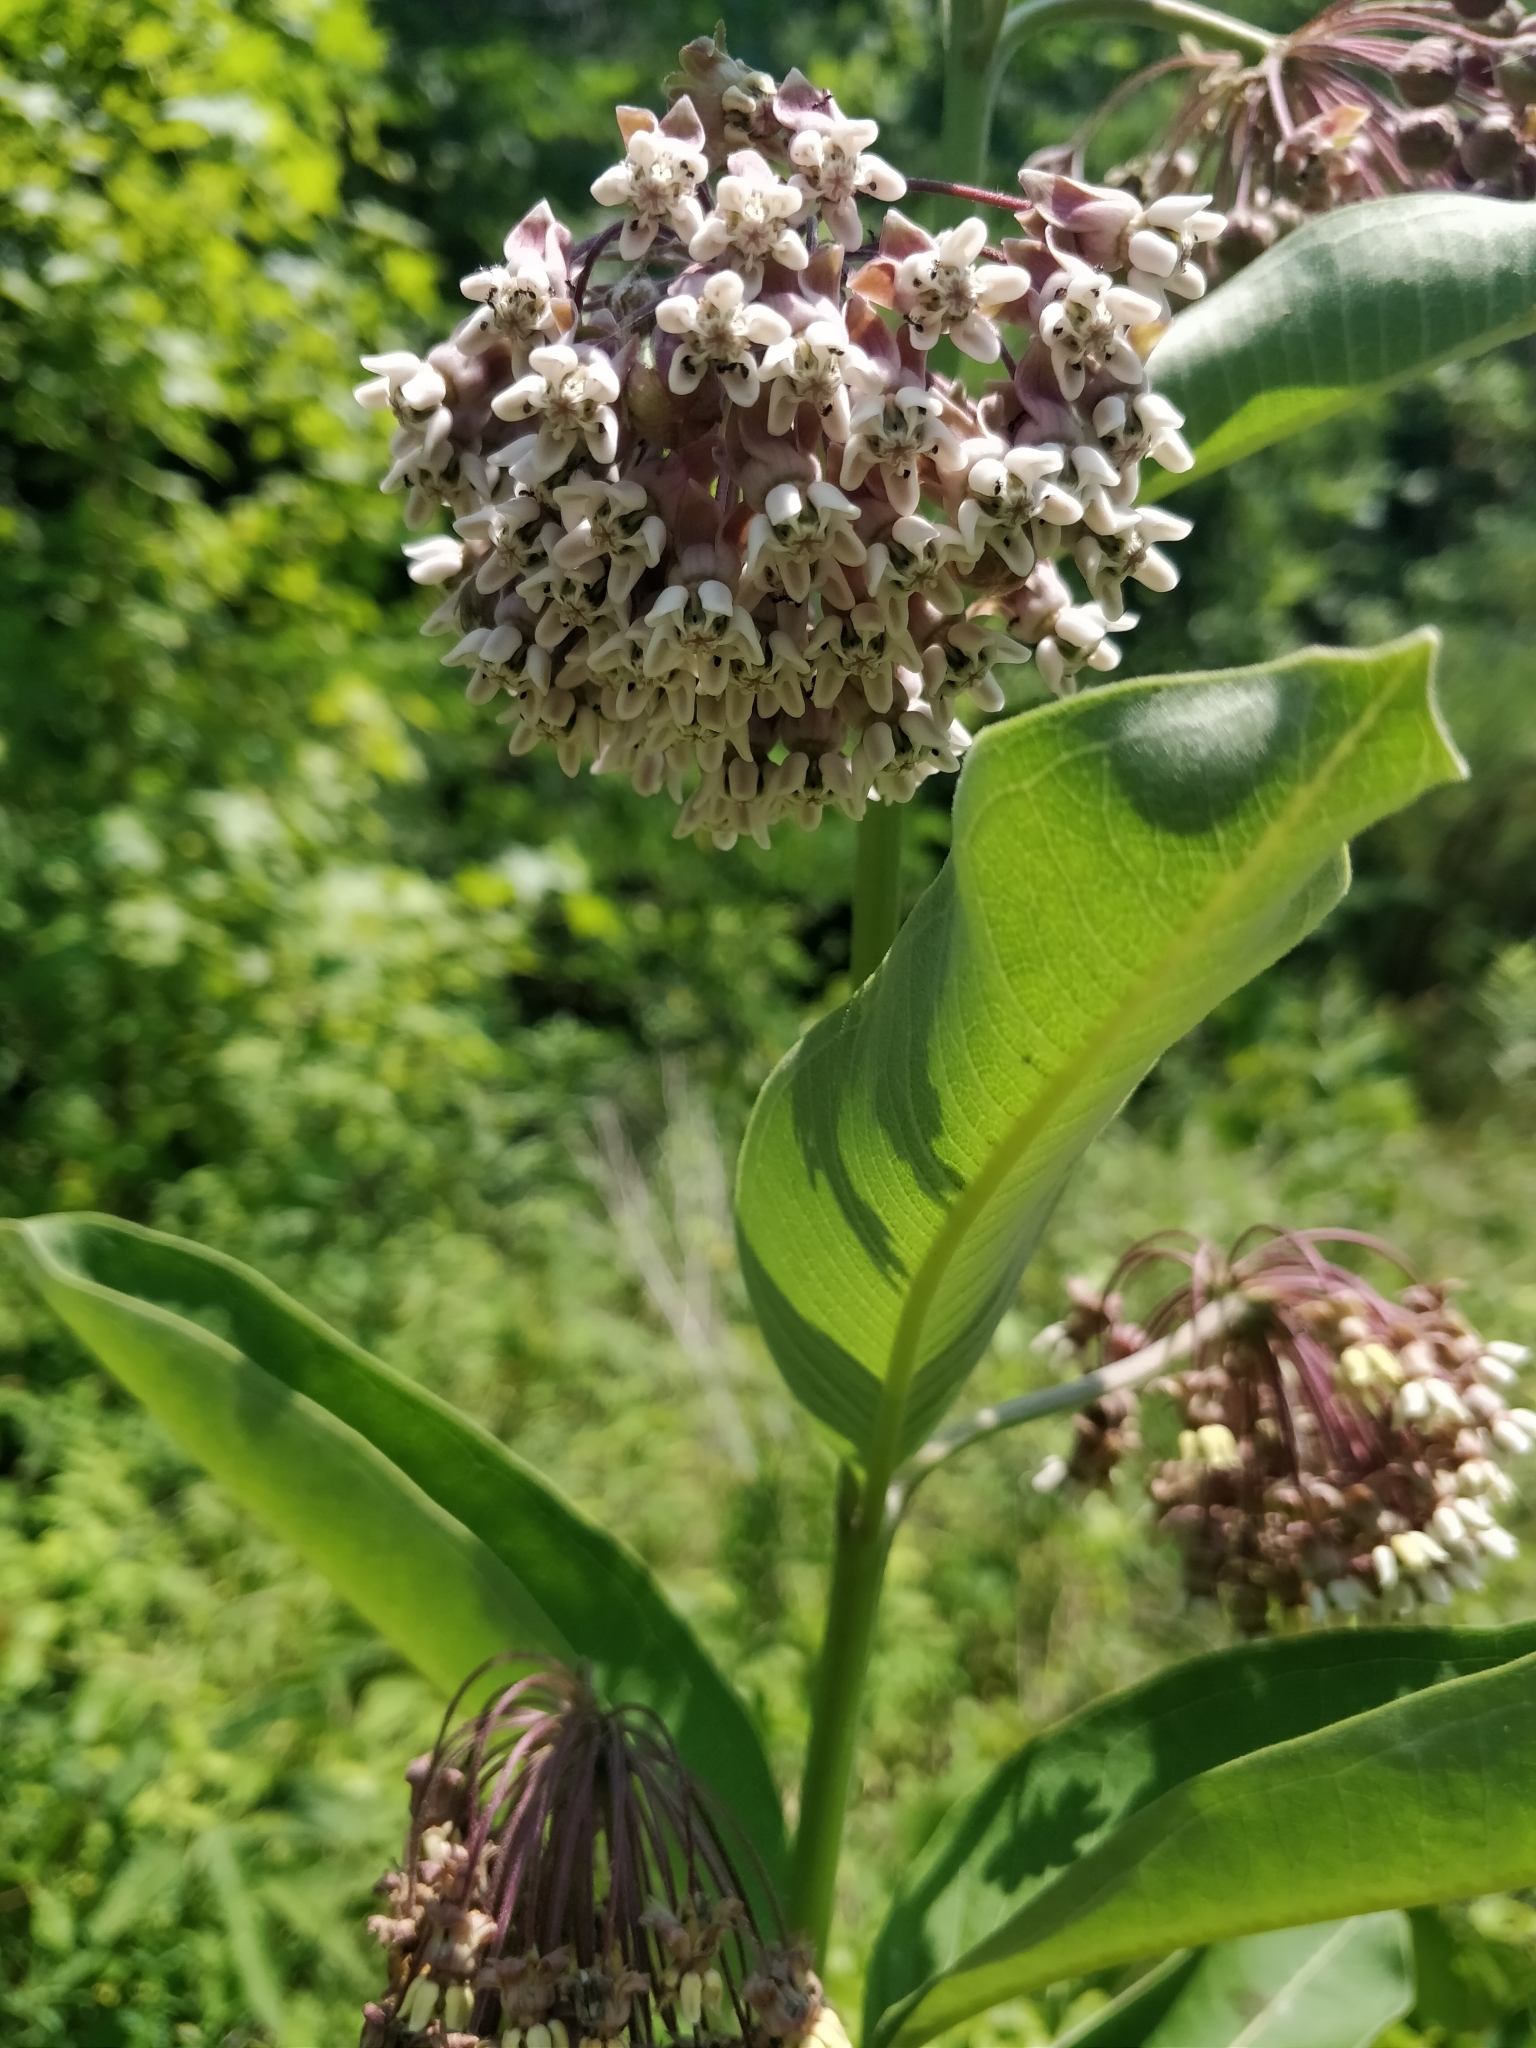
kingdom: Plantae
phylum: Tracheophyta
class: Magnoliopsida
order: Gentianales
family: Apocynaceae
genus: Asclepias
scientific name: Asclepias syriaca
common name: Common milkweed
